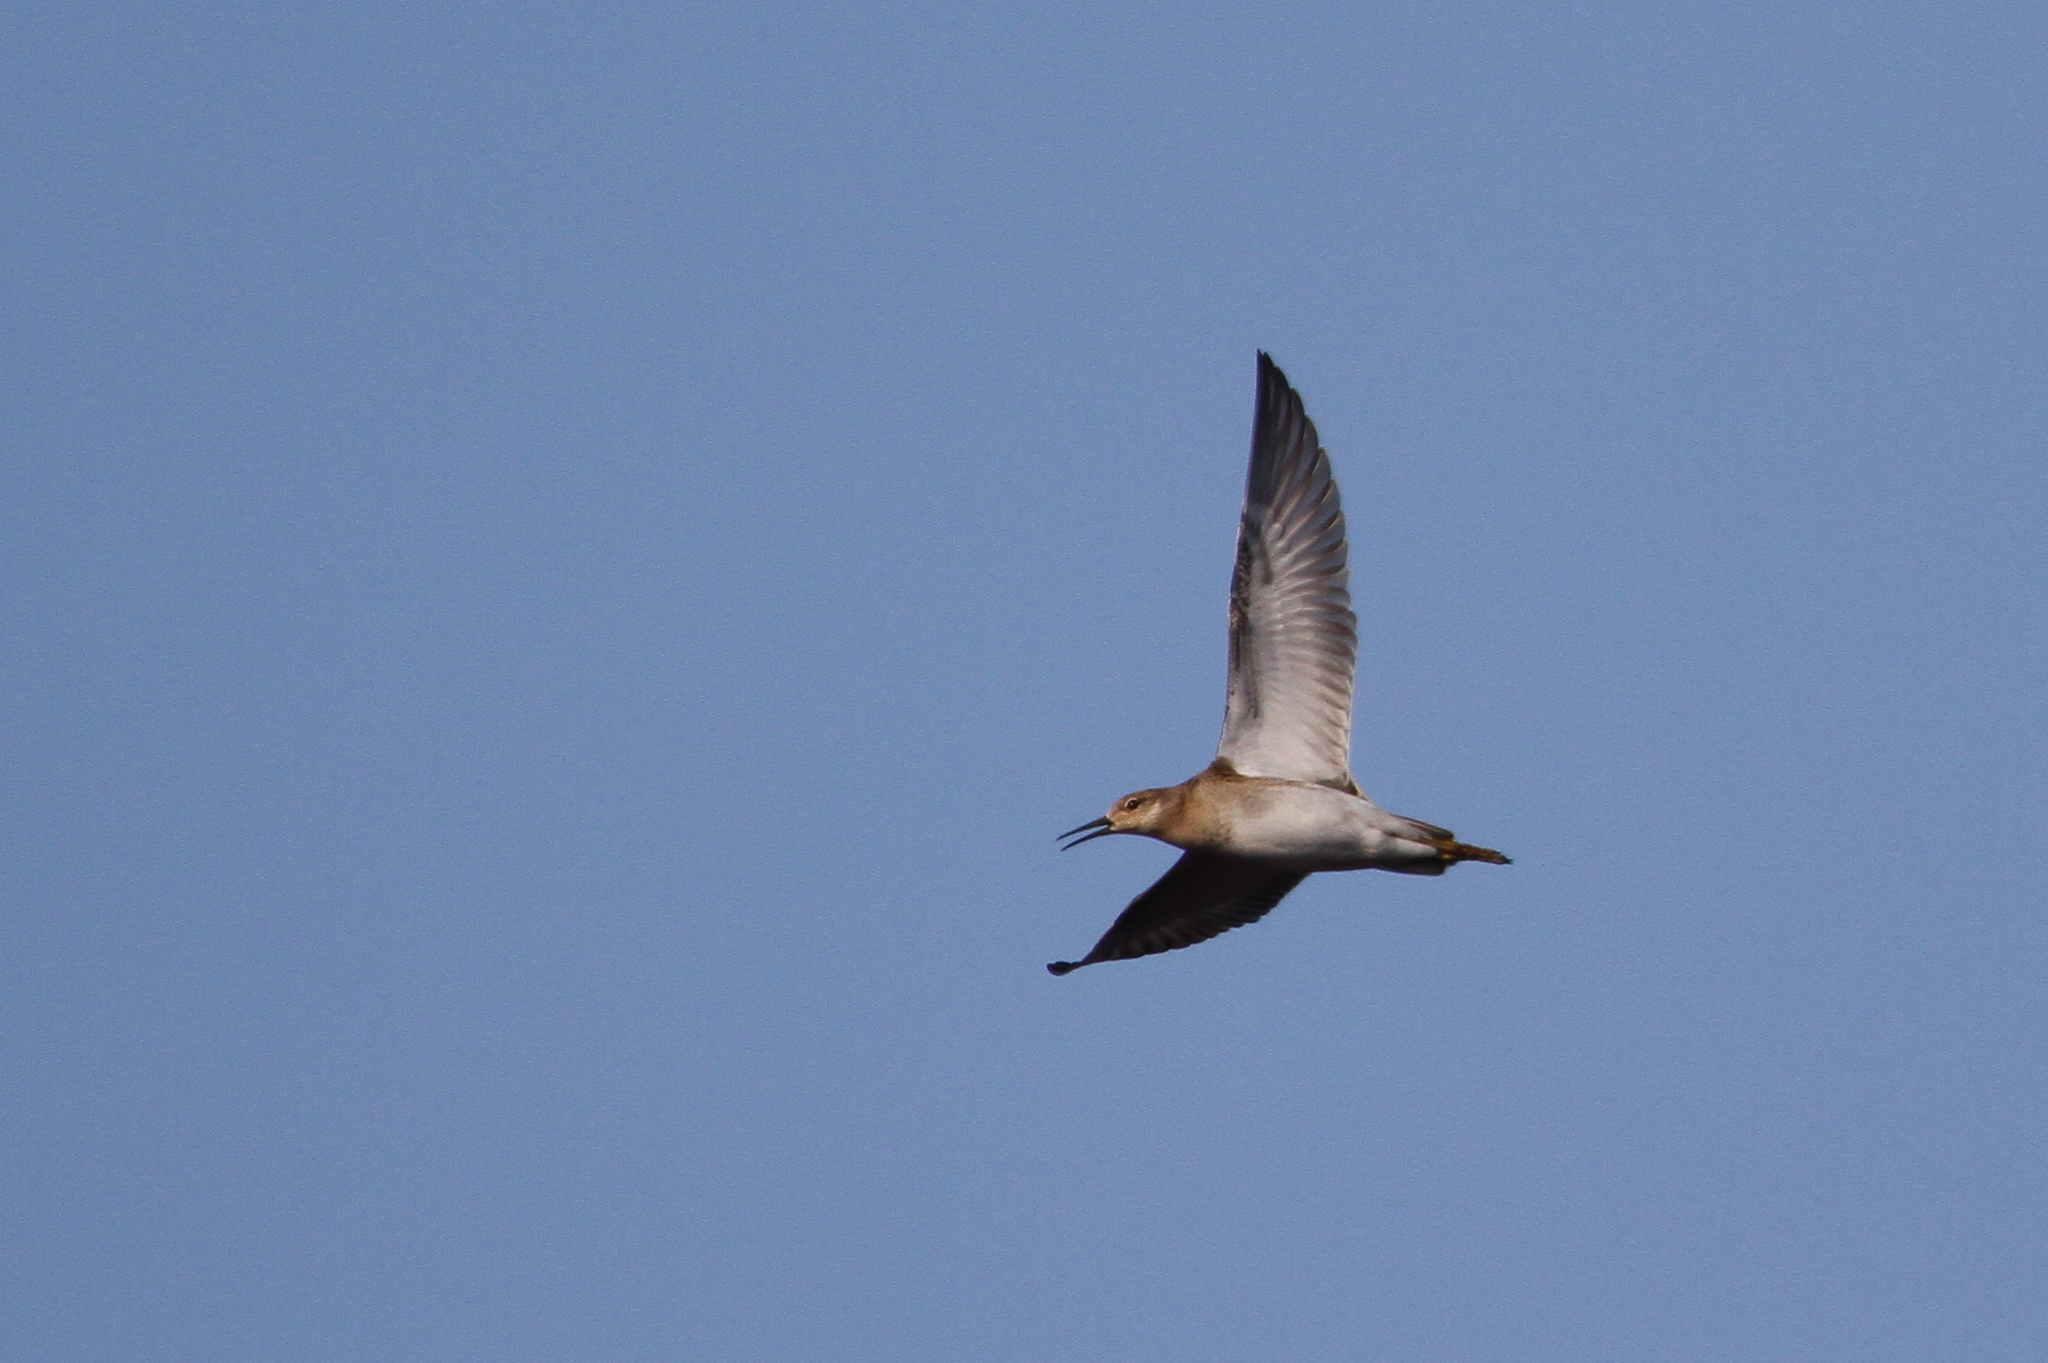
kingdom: Animalia
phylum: Chordata
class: Aves
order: Charadriiformes
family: Scolopacidae
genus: Calidris
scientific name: Calidris pugnax
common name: Ruff
